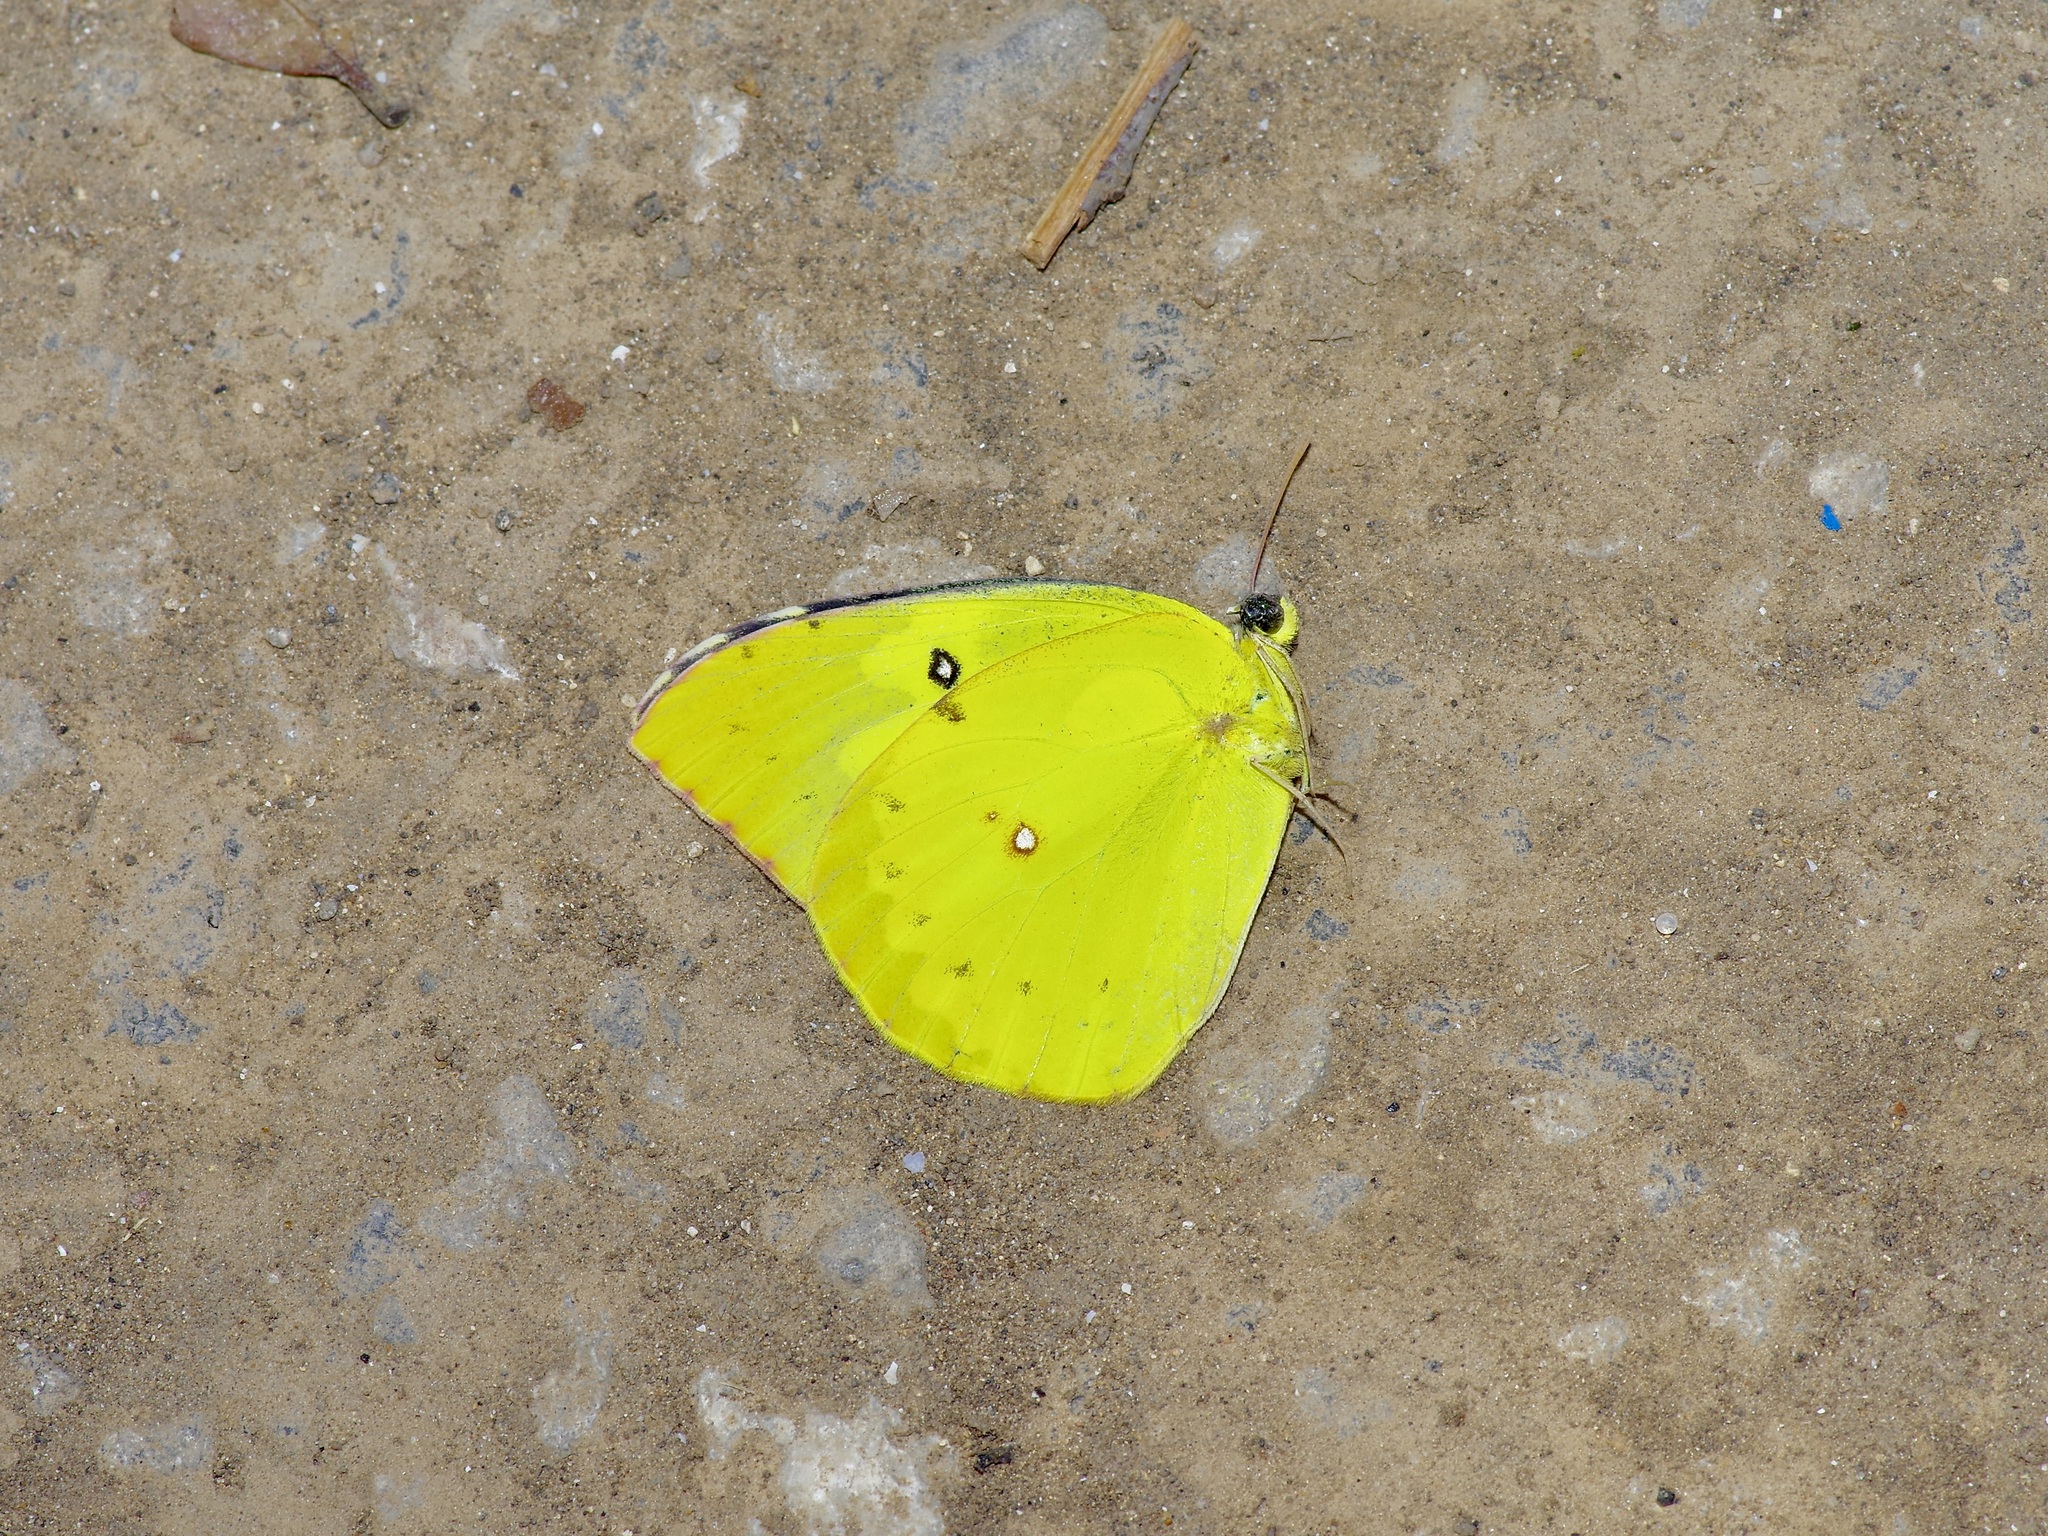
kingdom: Animalia
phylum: Arthropoda
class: Insecta
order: Lepidoptera
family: Pieridae
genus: Zerene
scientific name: Zerene cesonia
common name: Southern dogface
